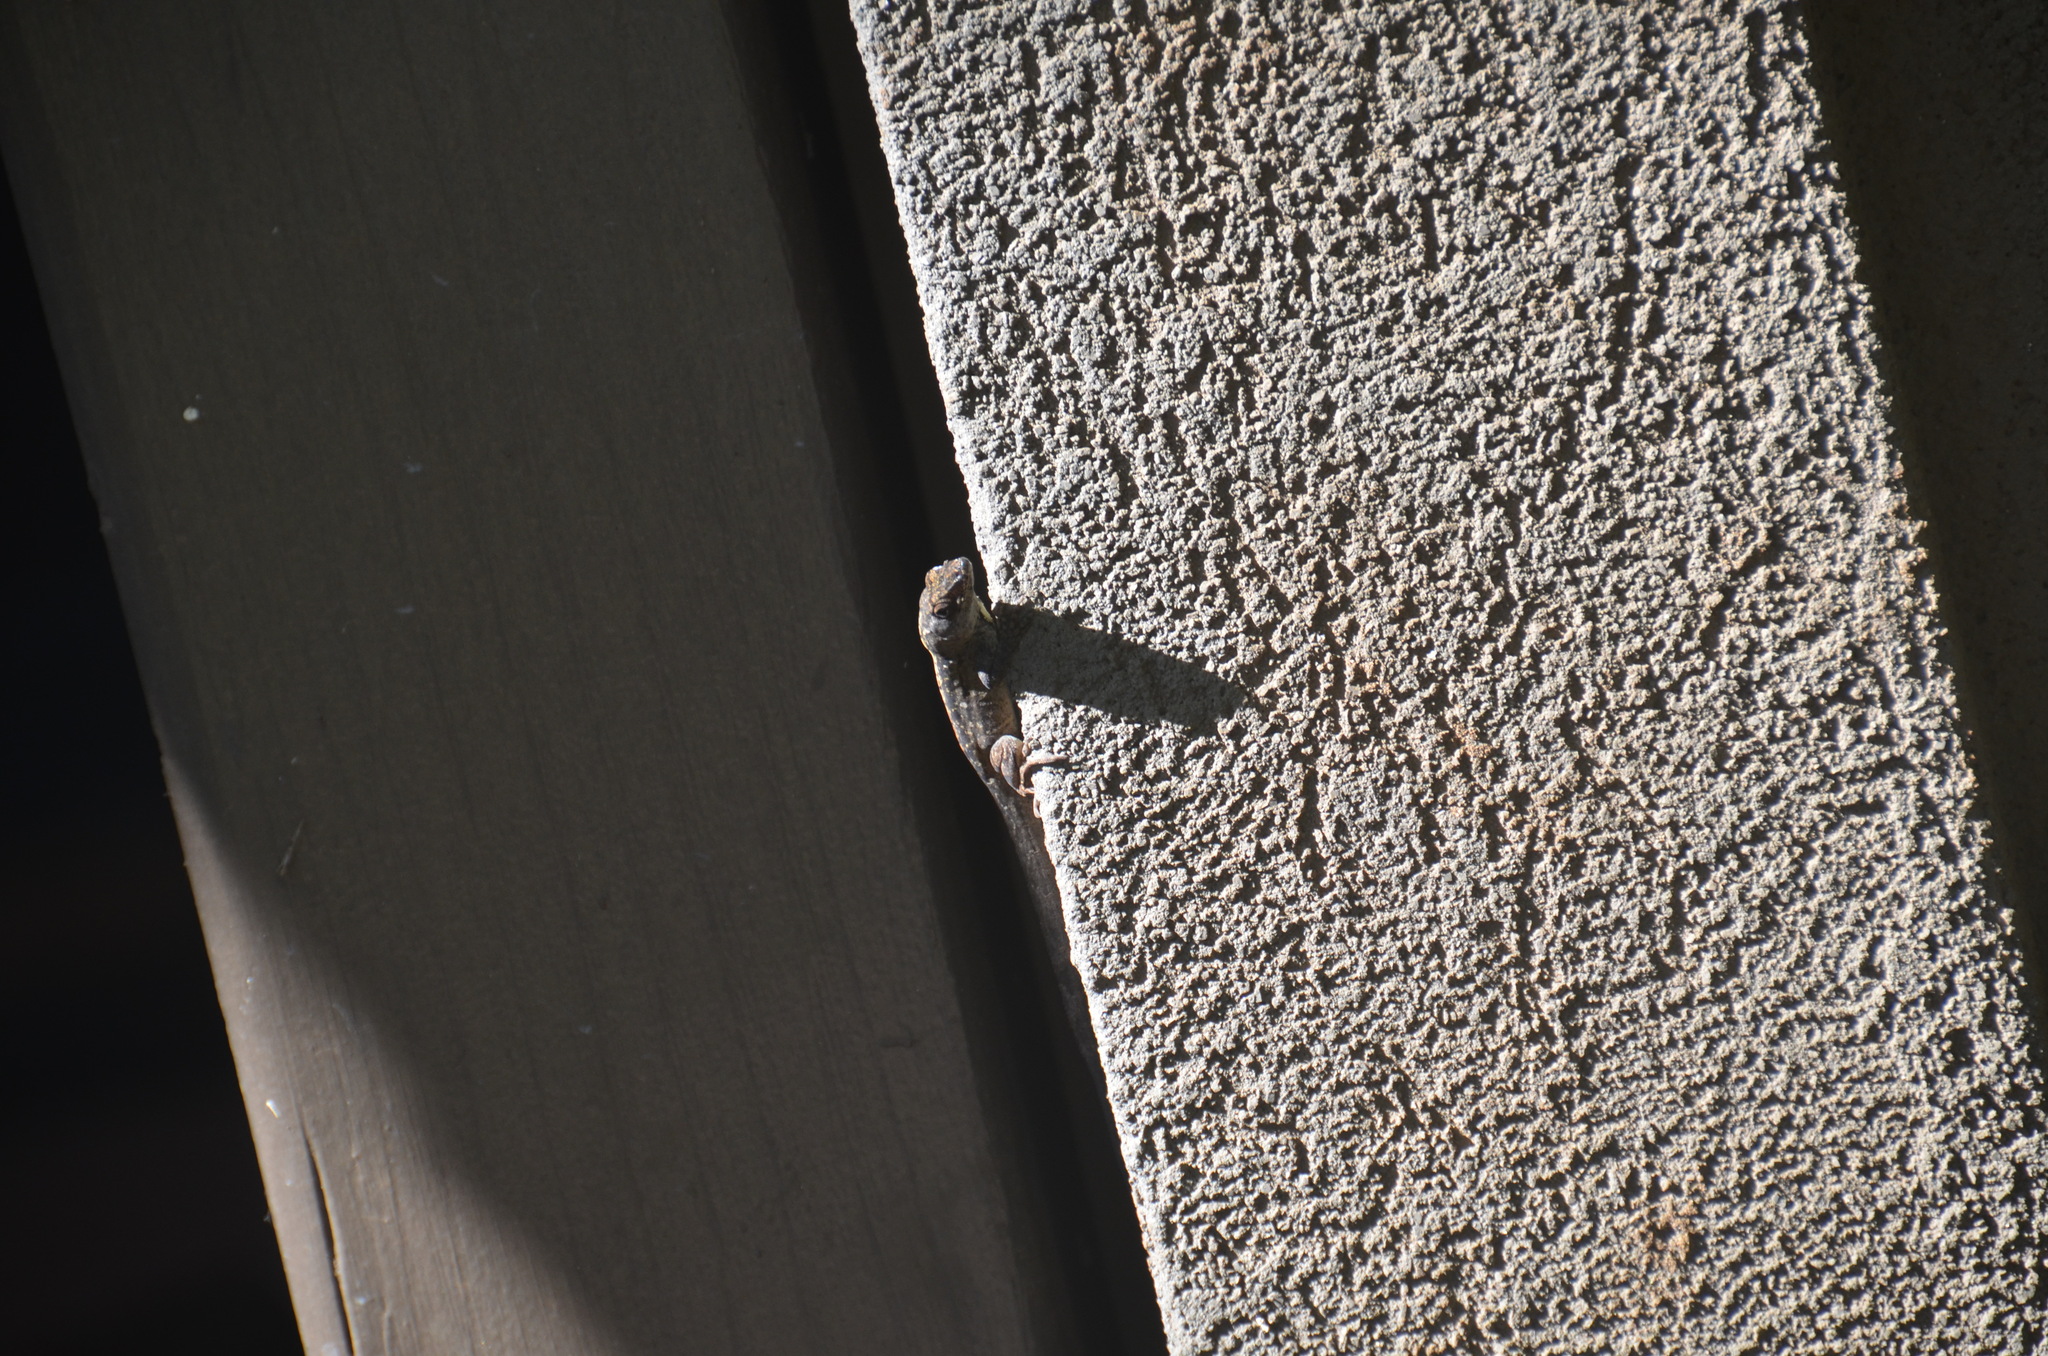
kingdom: Animalia
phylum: Chordata
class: Squamata
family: Dactyloidae
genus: Anolis
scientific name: Anolis sagrei
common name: Brown anole
